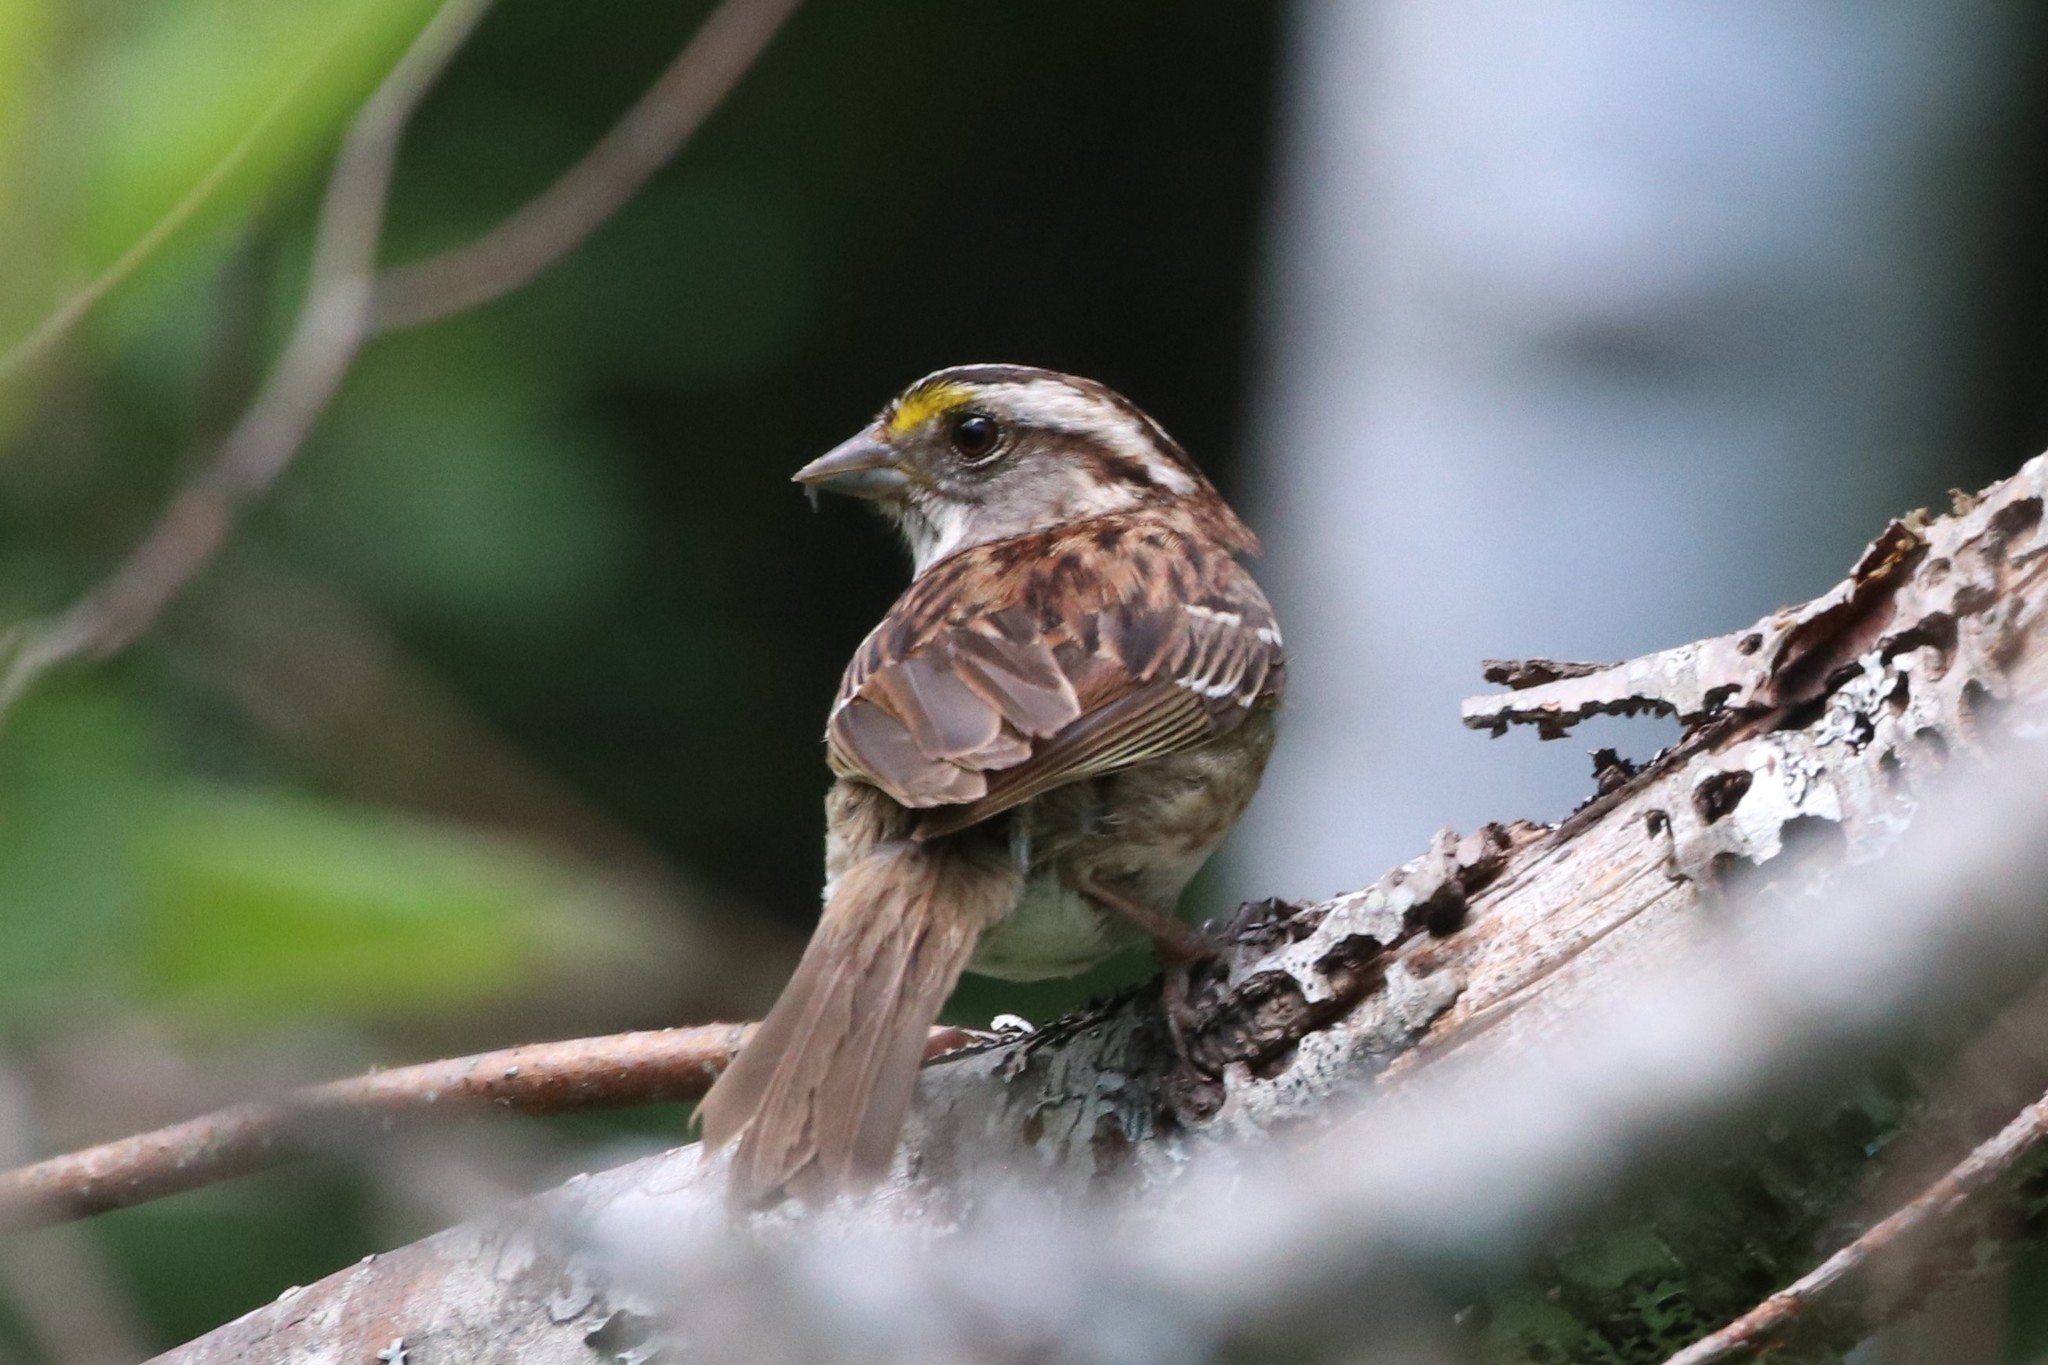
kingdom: Animalia
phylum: Chordata
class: Aves
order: Passeriformes
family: Passerellidae
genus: Zonotrichia
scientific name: Zonotrichia albicollis
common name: White-throated sparrow
